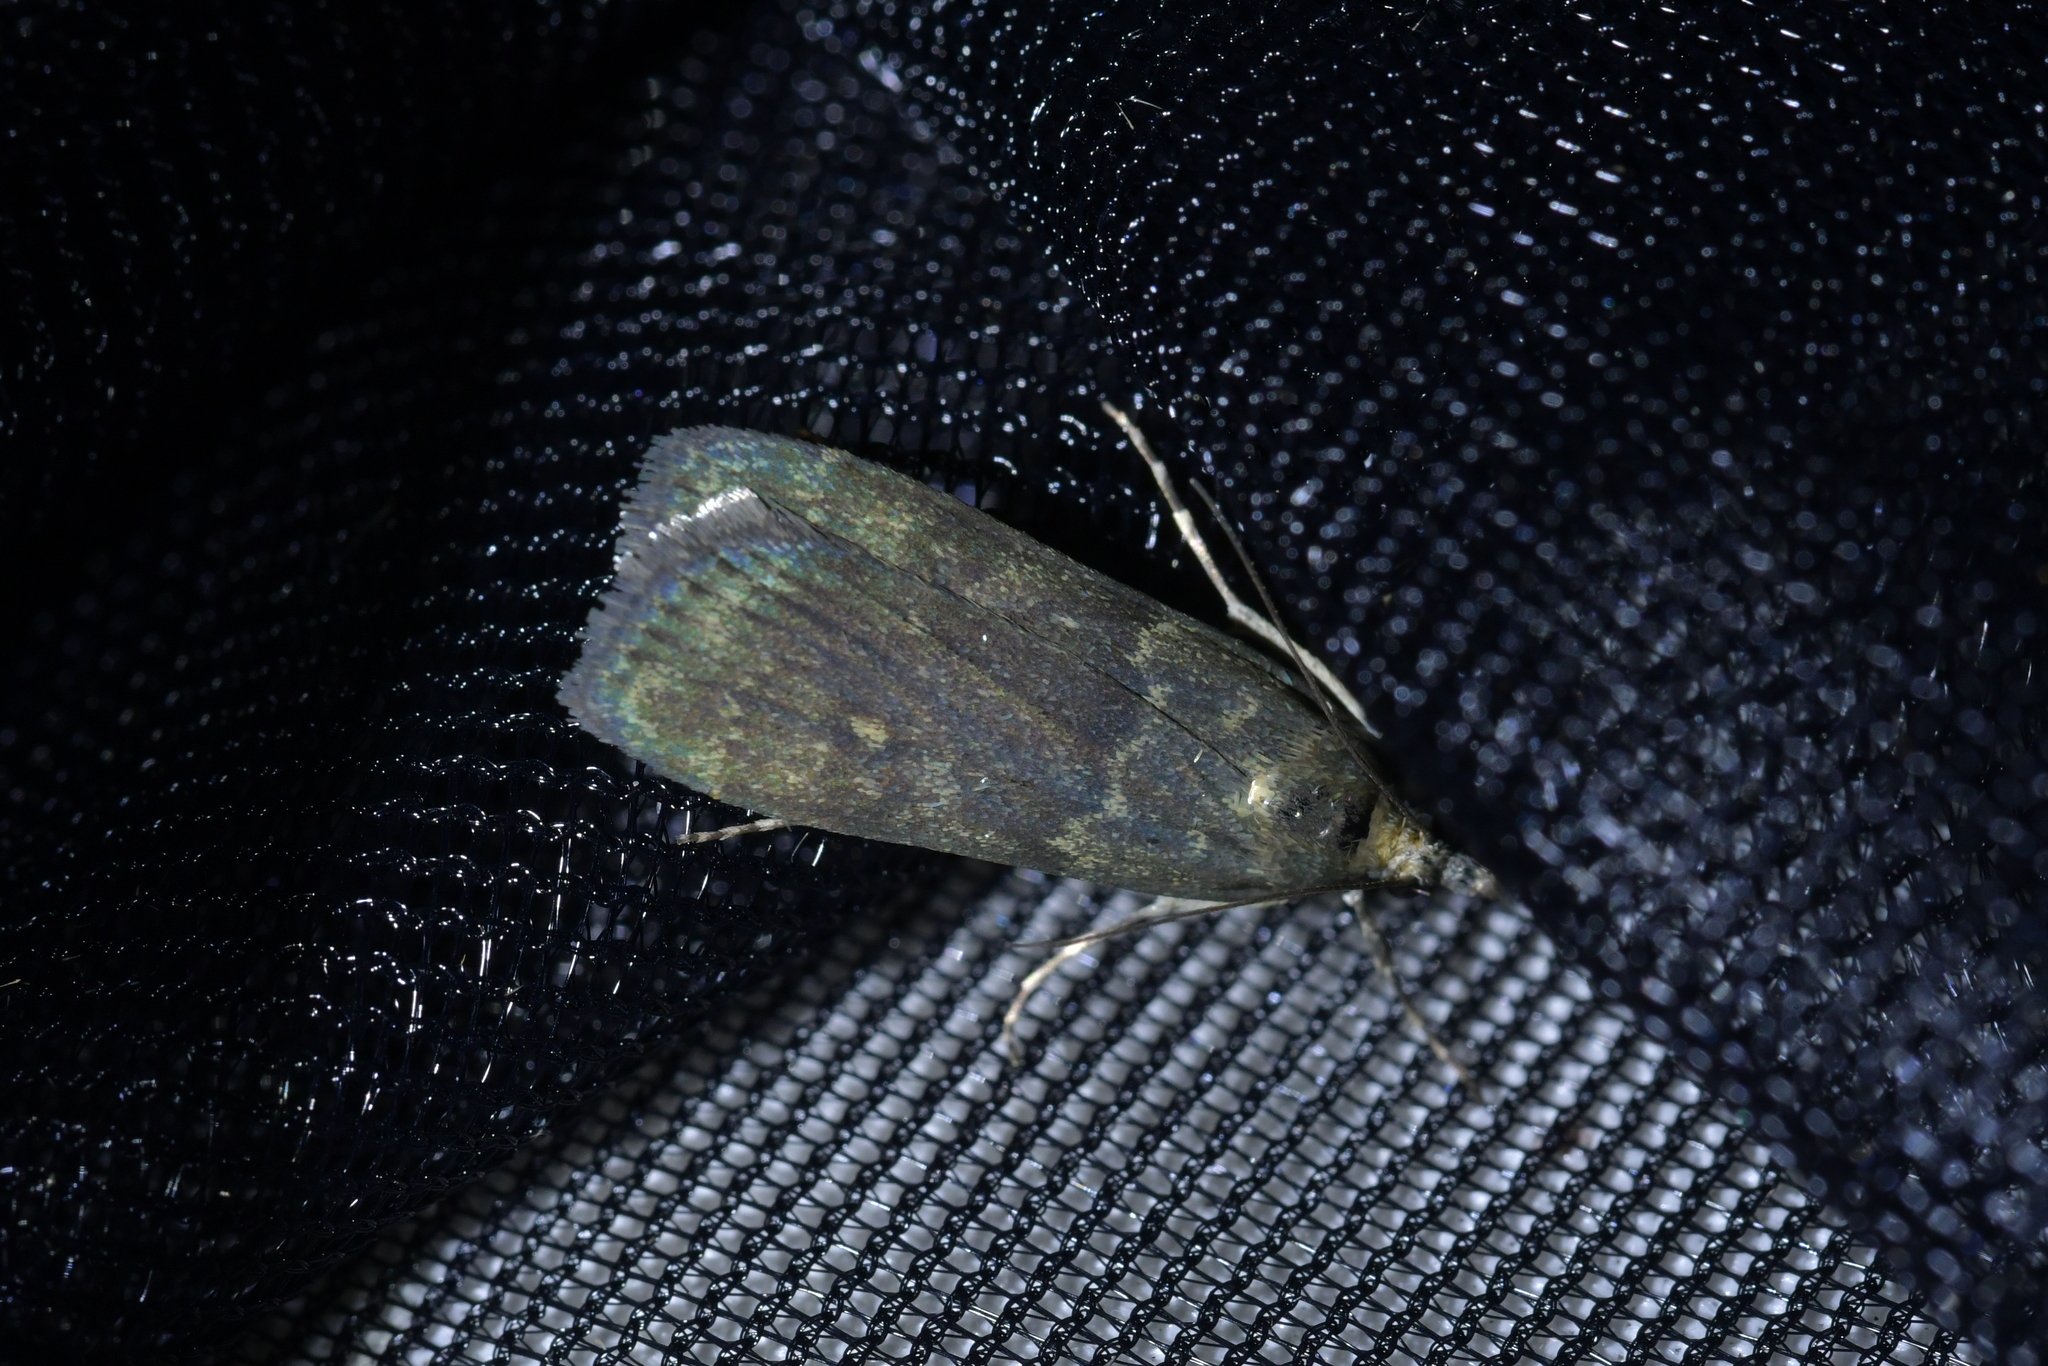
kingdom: Animalia
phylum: Arthropoda
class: Insecta
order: Lepidoptera
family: Crambidae
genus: Eudonia
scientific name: Eudonia cataxesta
